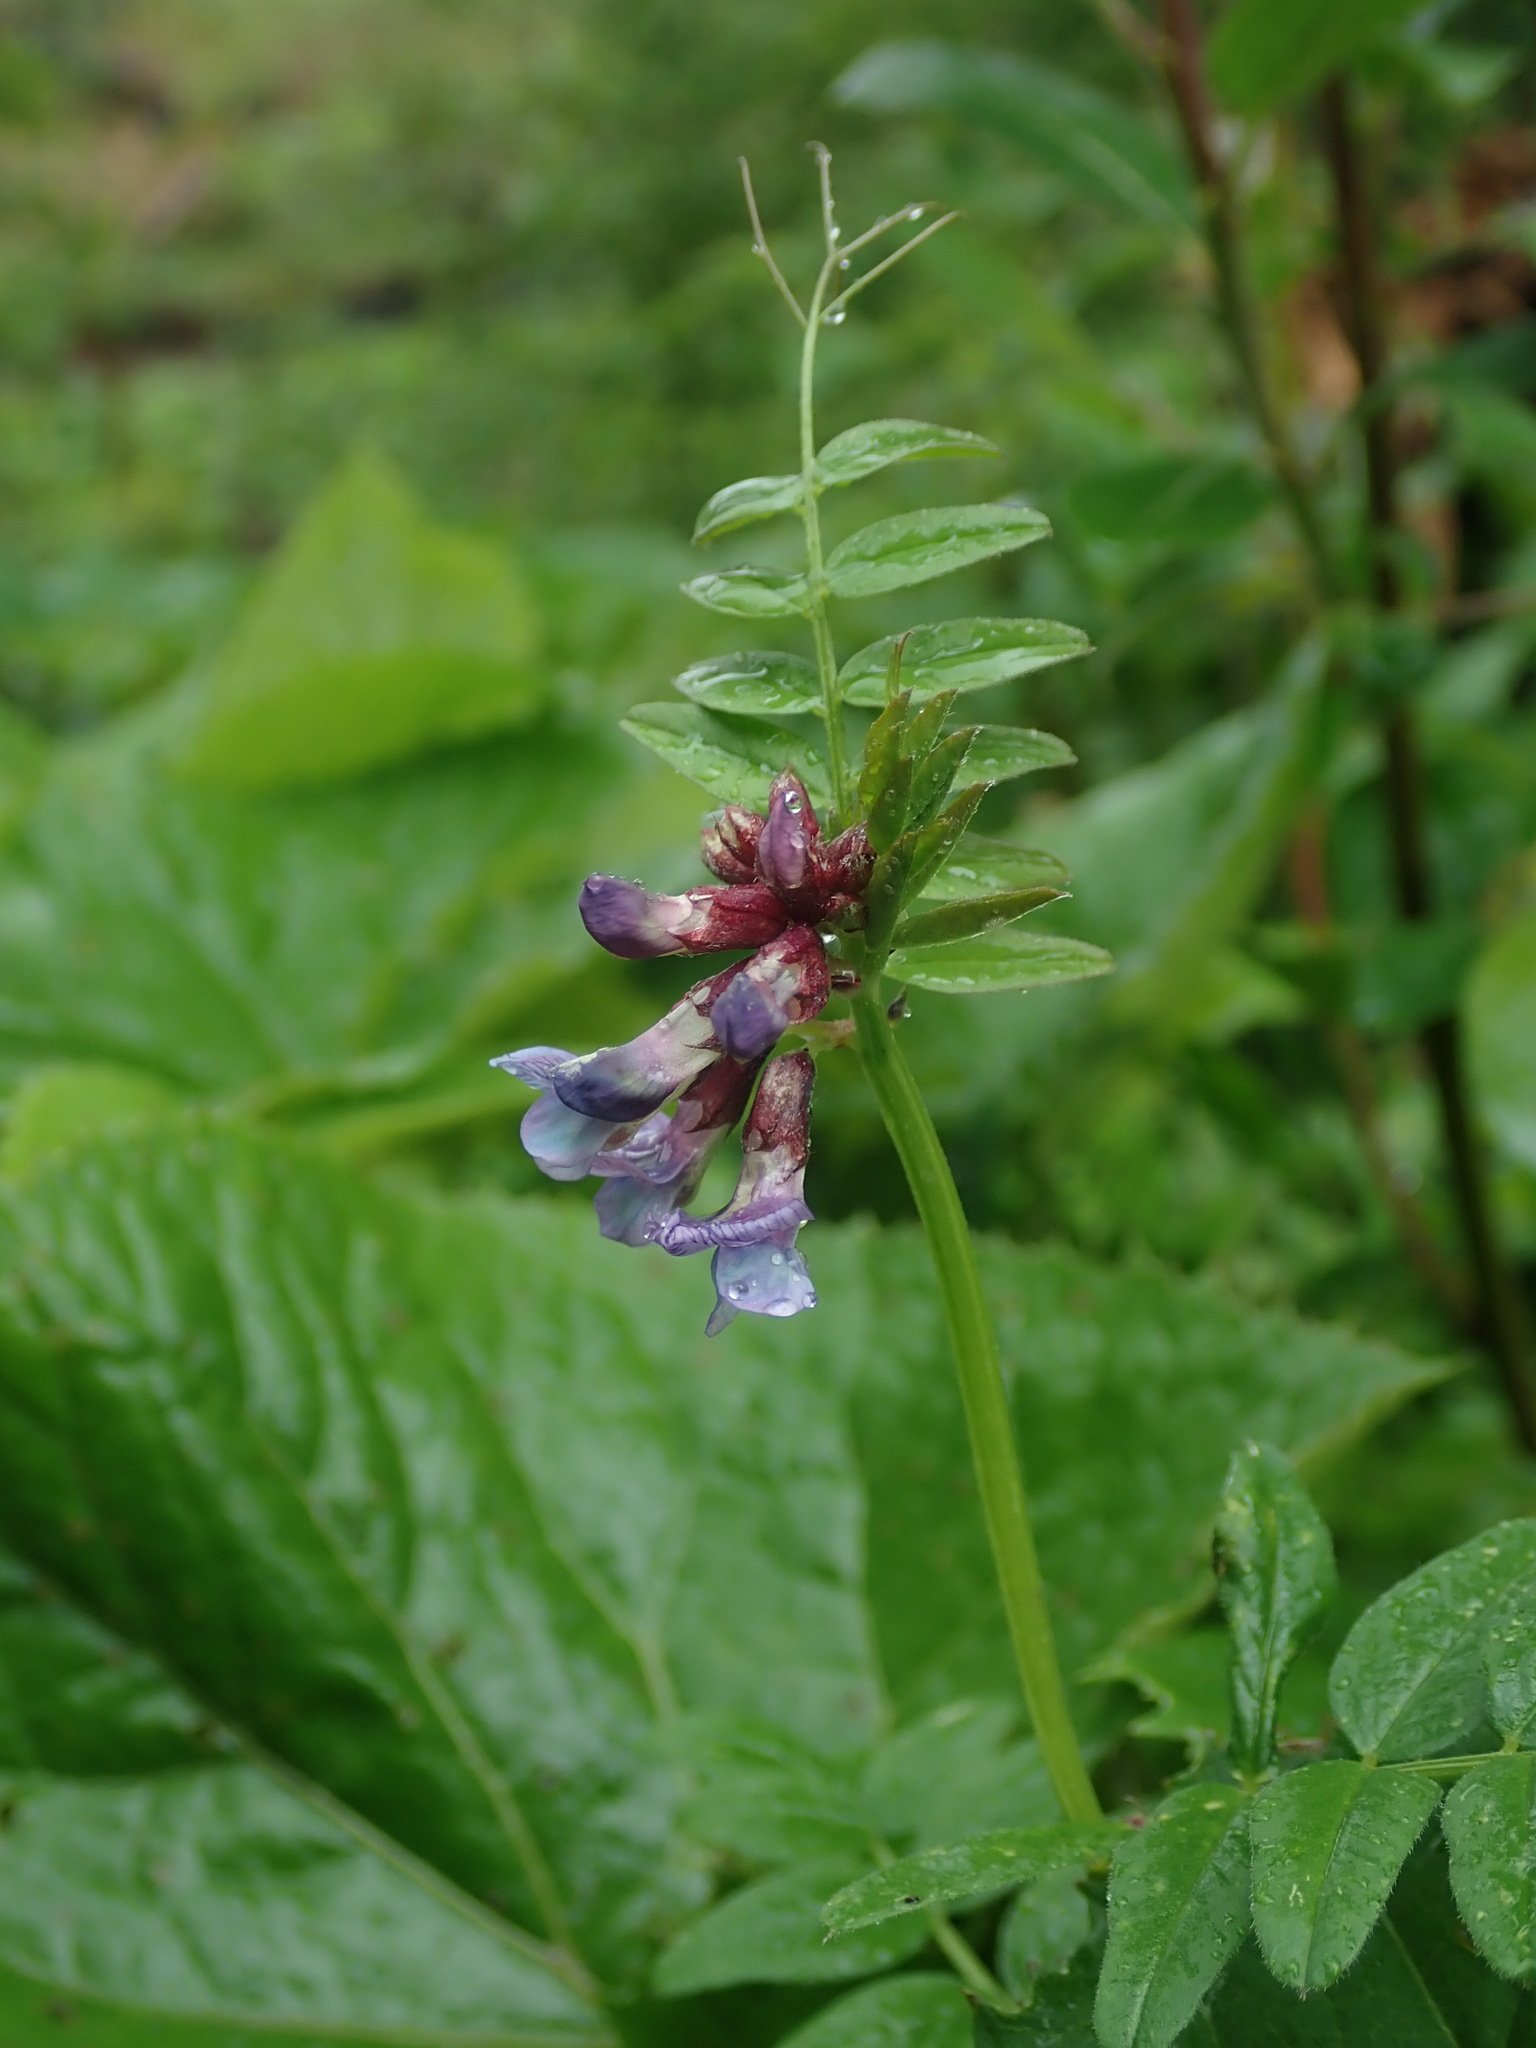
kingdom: Plantae
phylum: Tracheophyta
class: Magnoliopsida
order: Fabales
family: Fabaceae
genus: Vicia
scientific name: Vicia sepium
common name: Bush vetch
